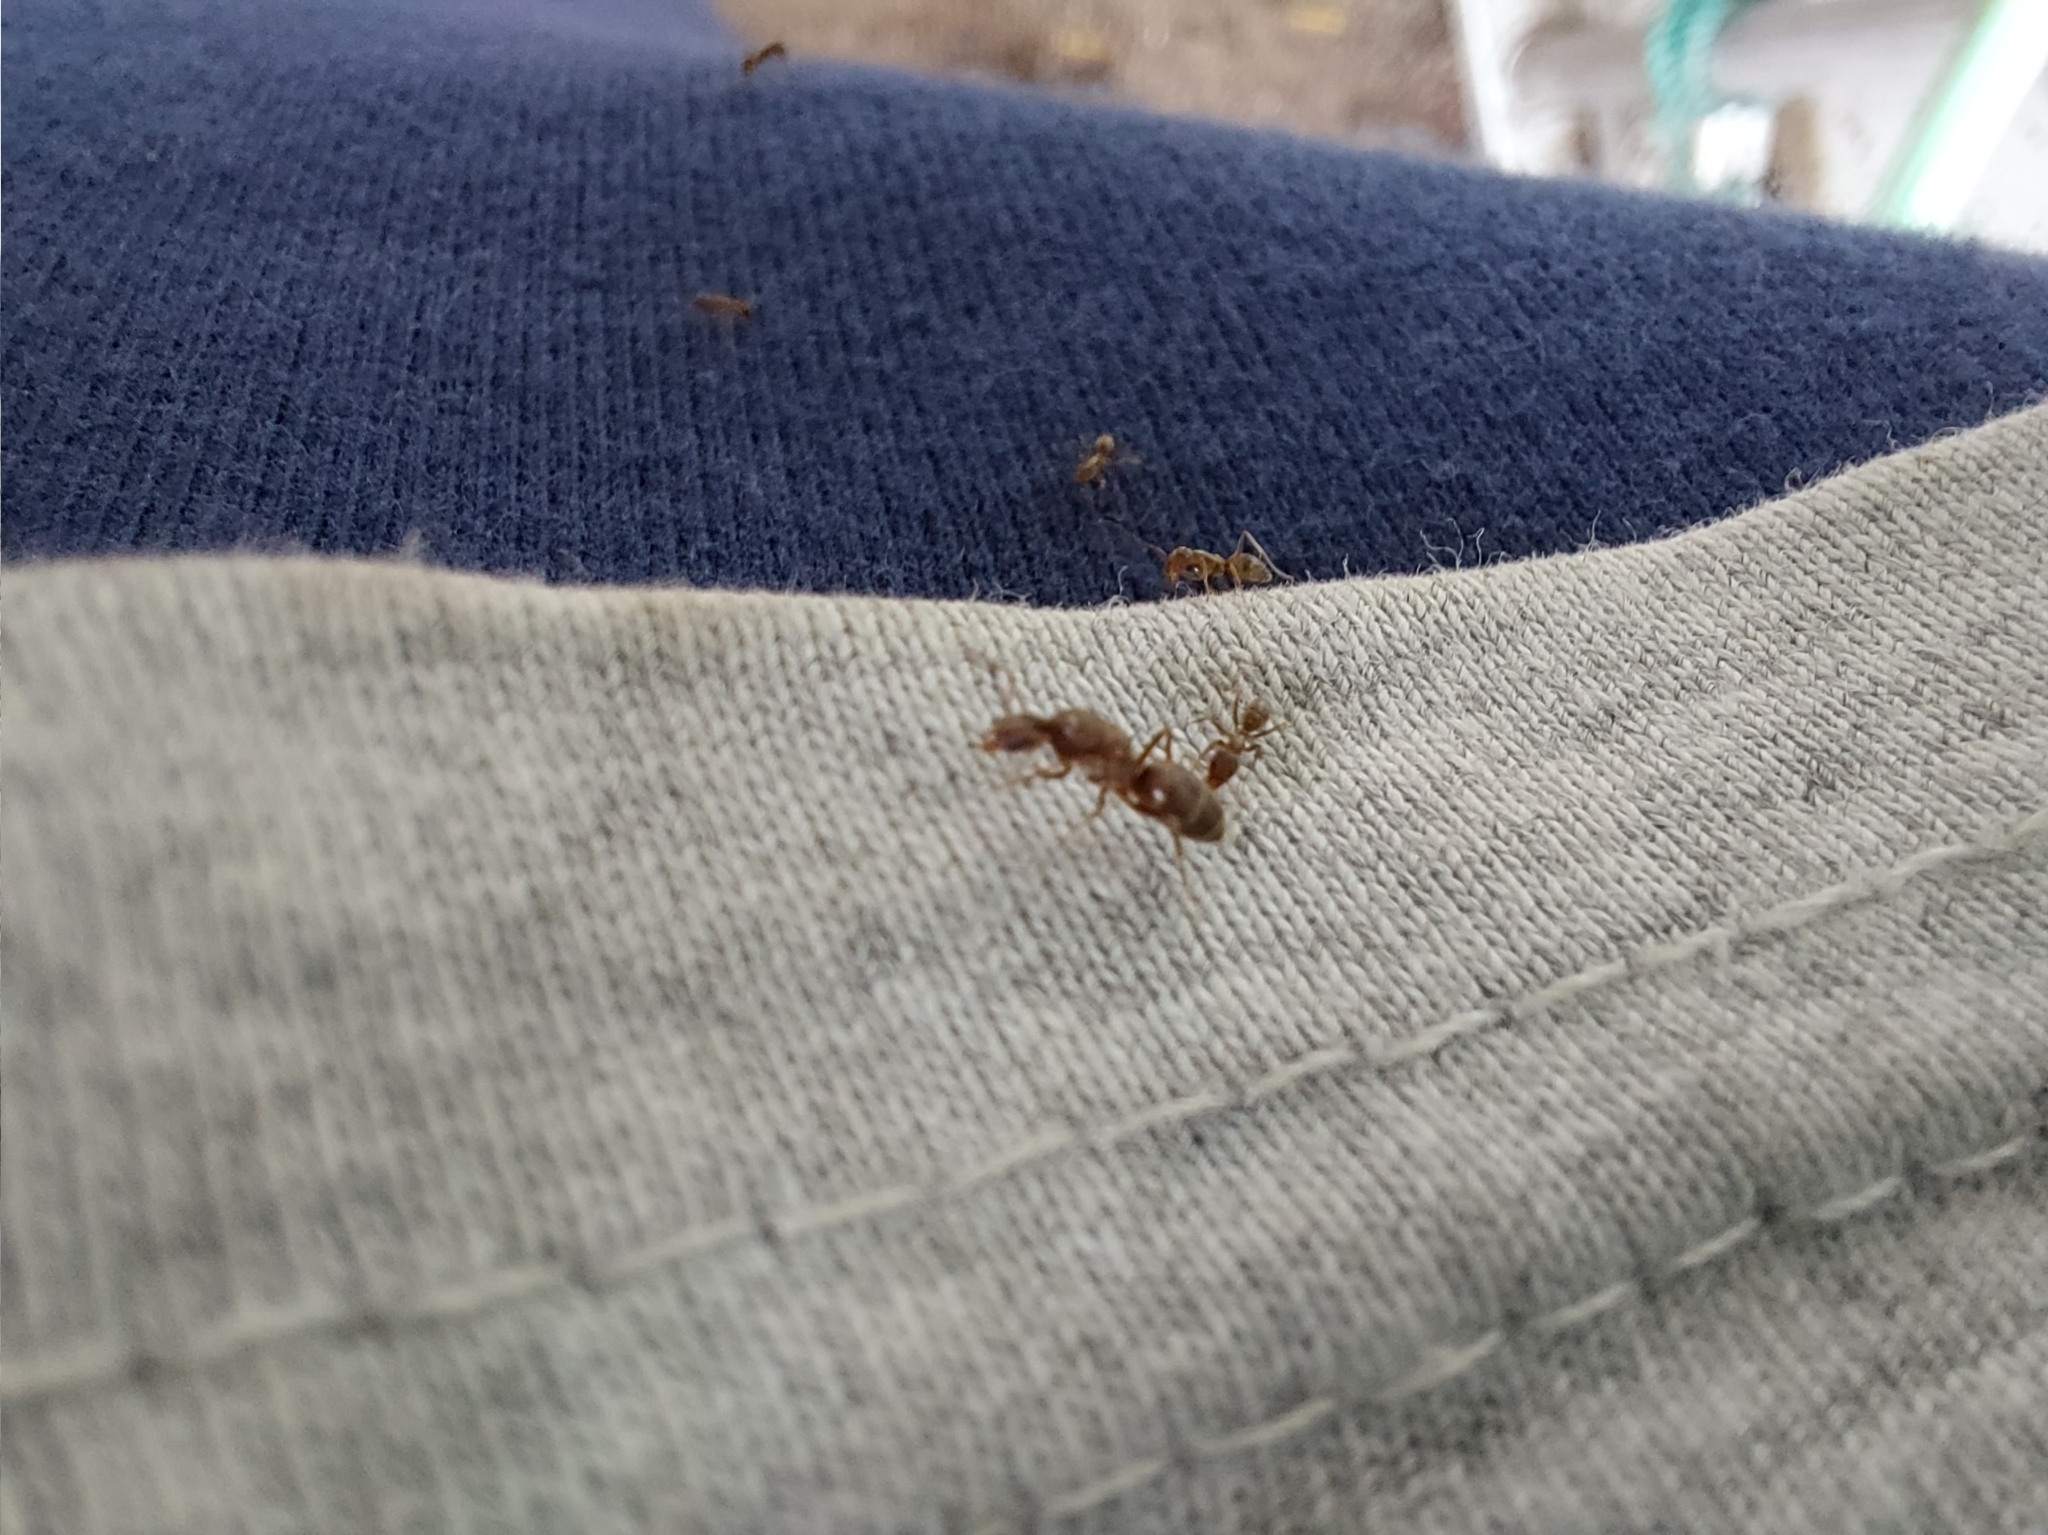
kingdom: Animalia
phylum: Arthropoda
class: Insecta
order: Hymenoptera
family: Formicidae
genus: Linepithema
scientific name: Linepithema humile
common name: Argentine ant
